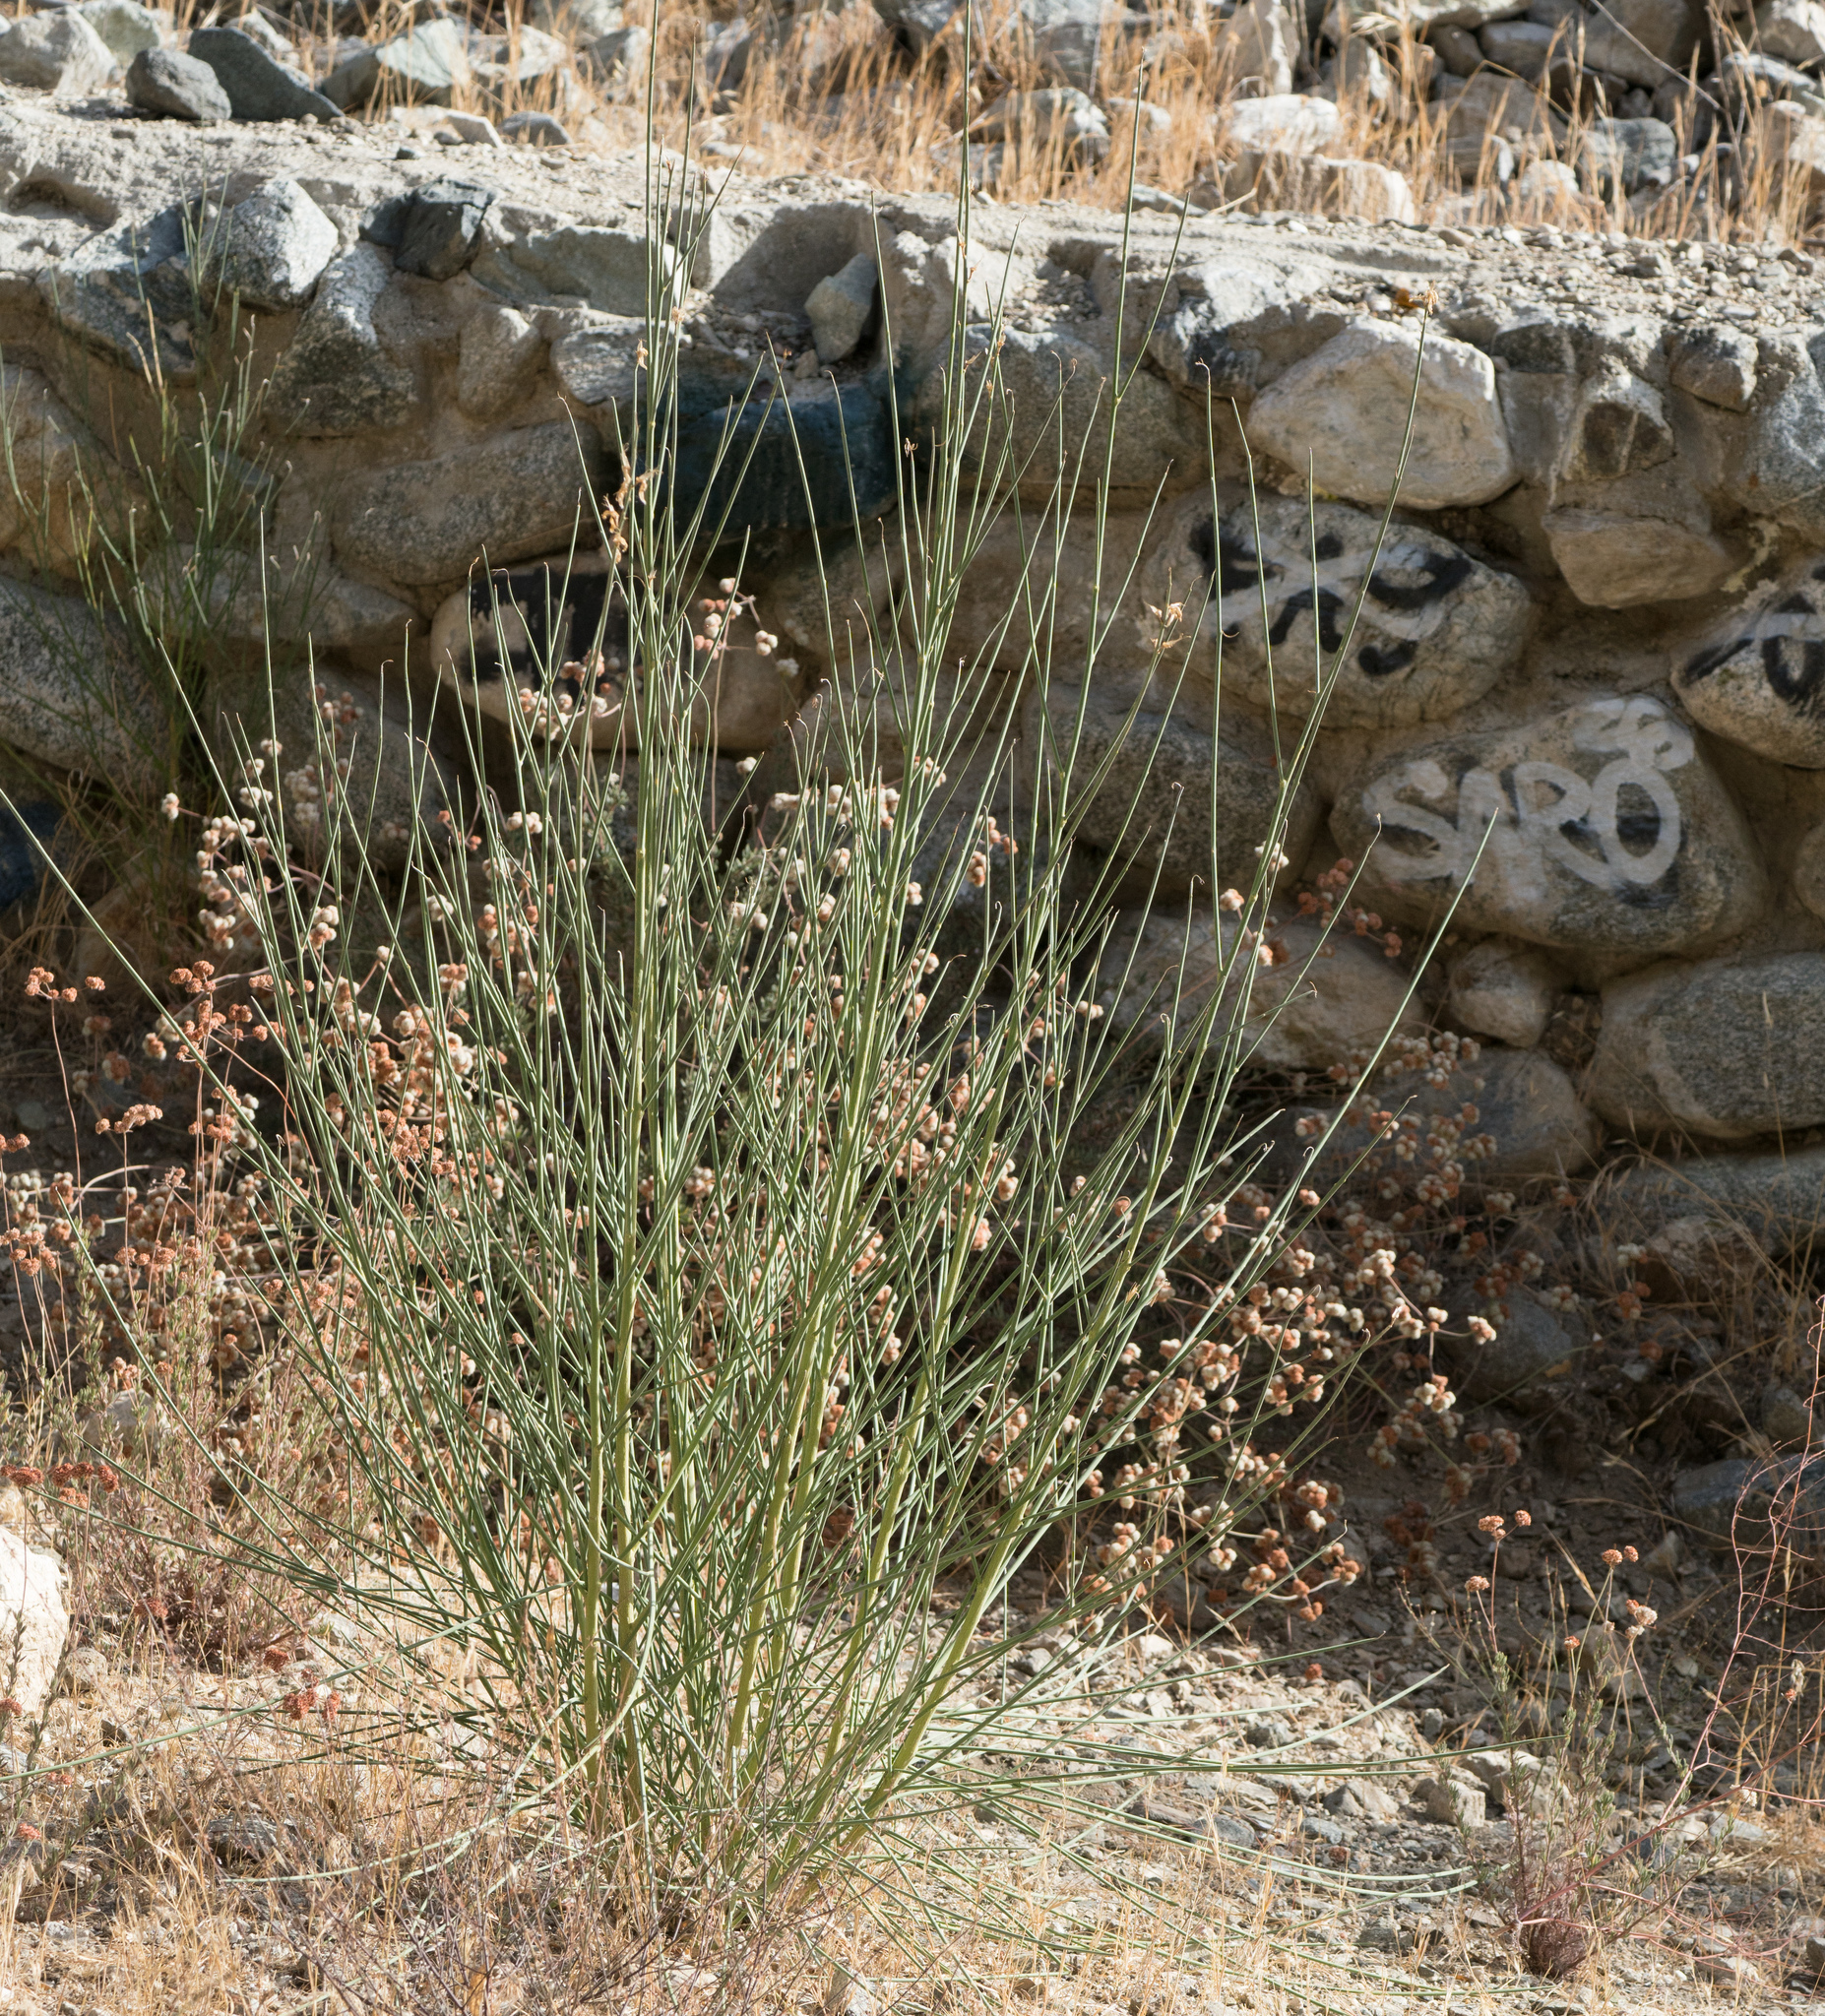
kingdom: Plantae
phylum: Tracheophyta
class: Magnoliopsida
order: Fabales
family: Fabaceae
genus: Spartium
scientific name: Spartium junceum
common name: Spanish broom
